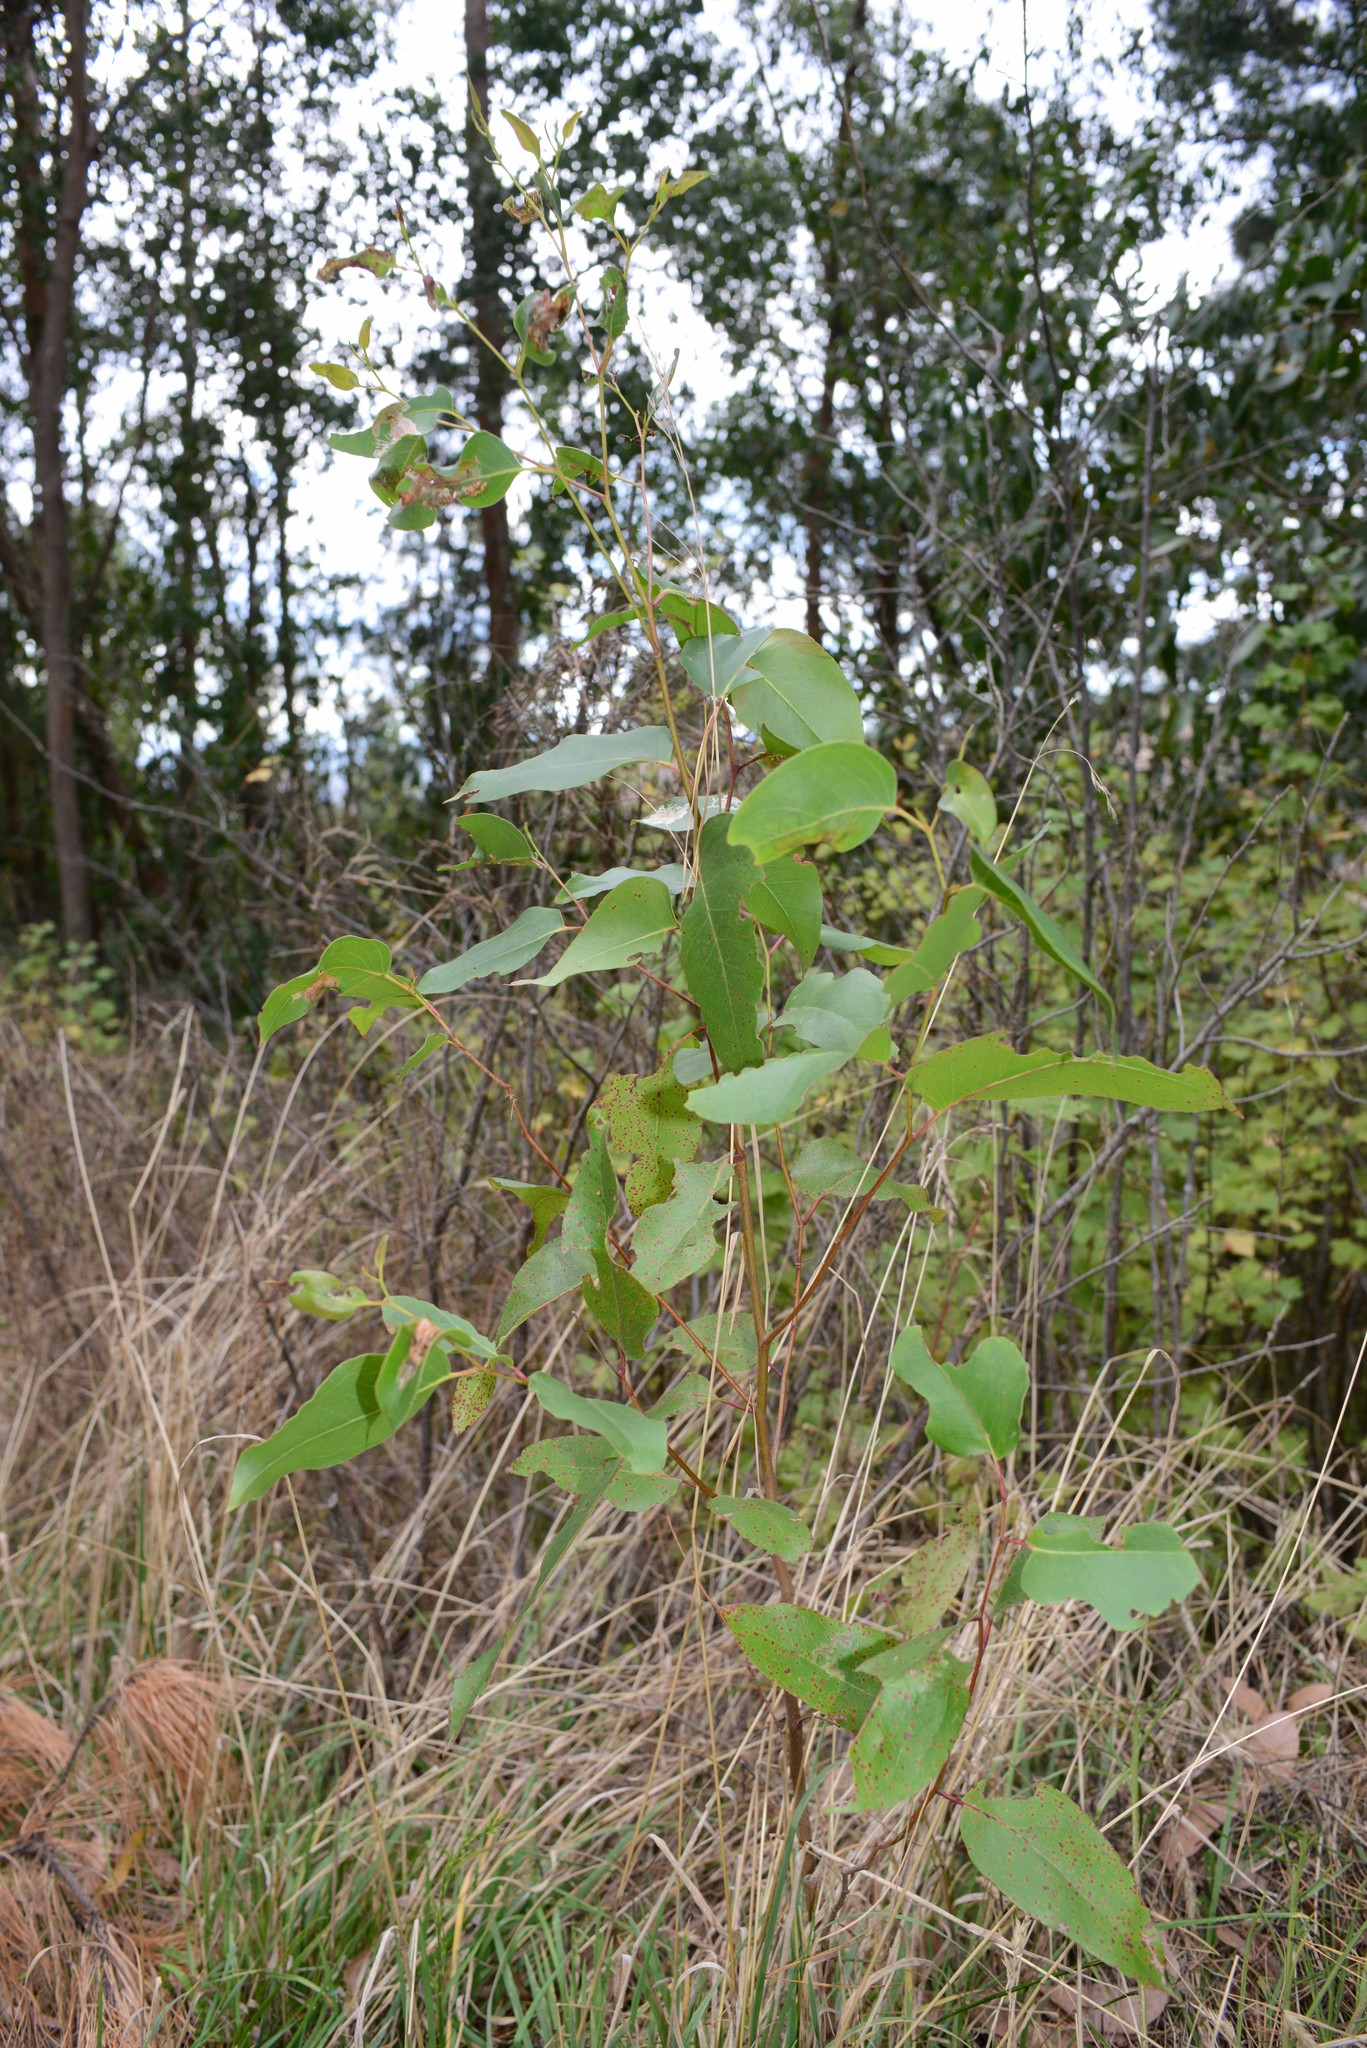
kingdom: Plantae
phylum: Tracheophyta
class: Magnoliopsida
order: Myrtales
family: Myrtaceae
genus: Eucalyptus
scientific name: Eucalyptus obliqua
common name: Messmate stringybark
